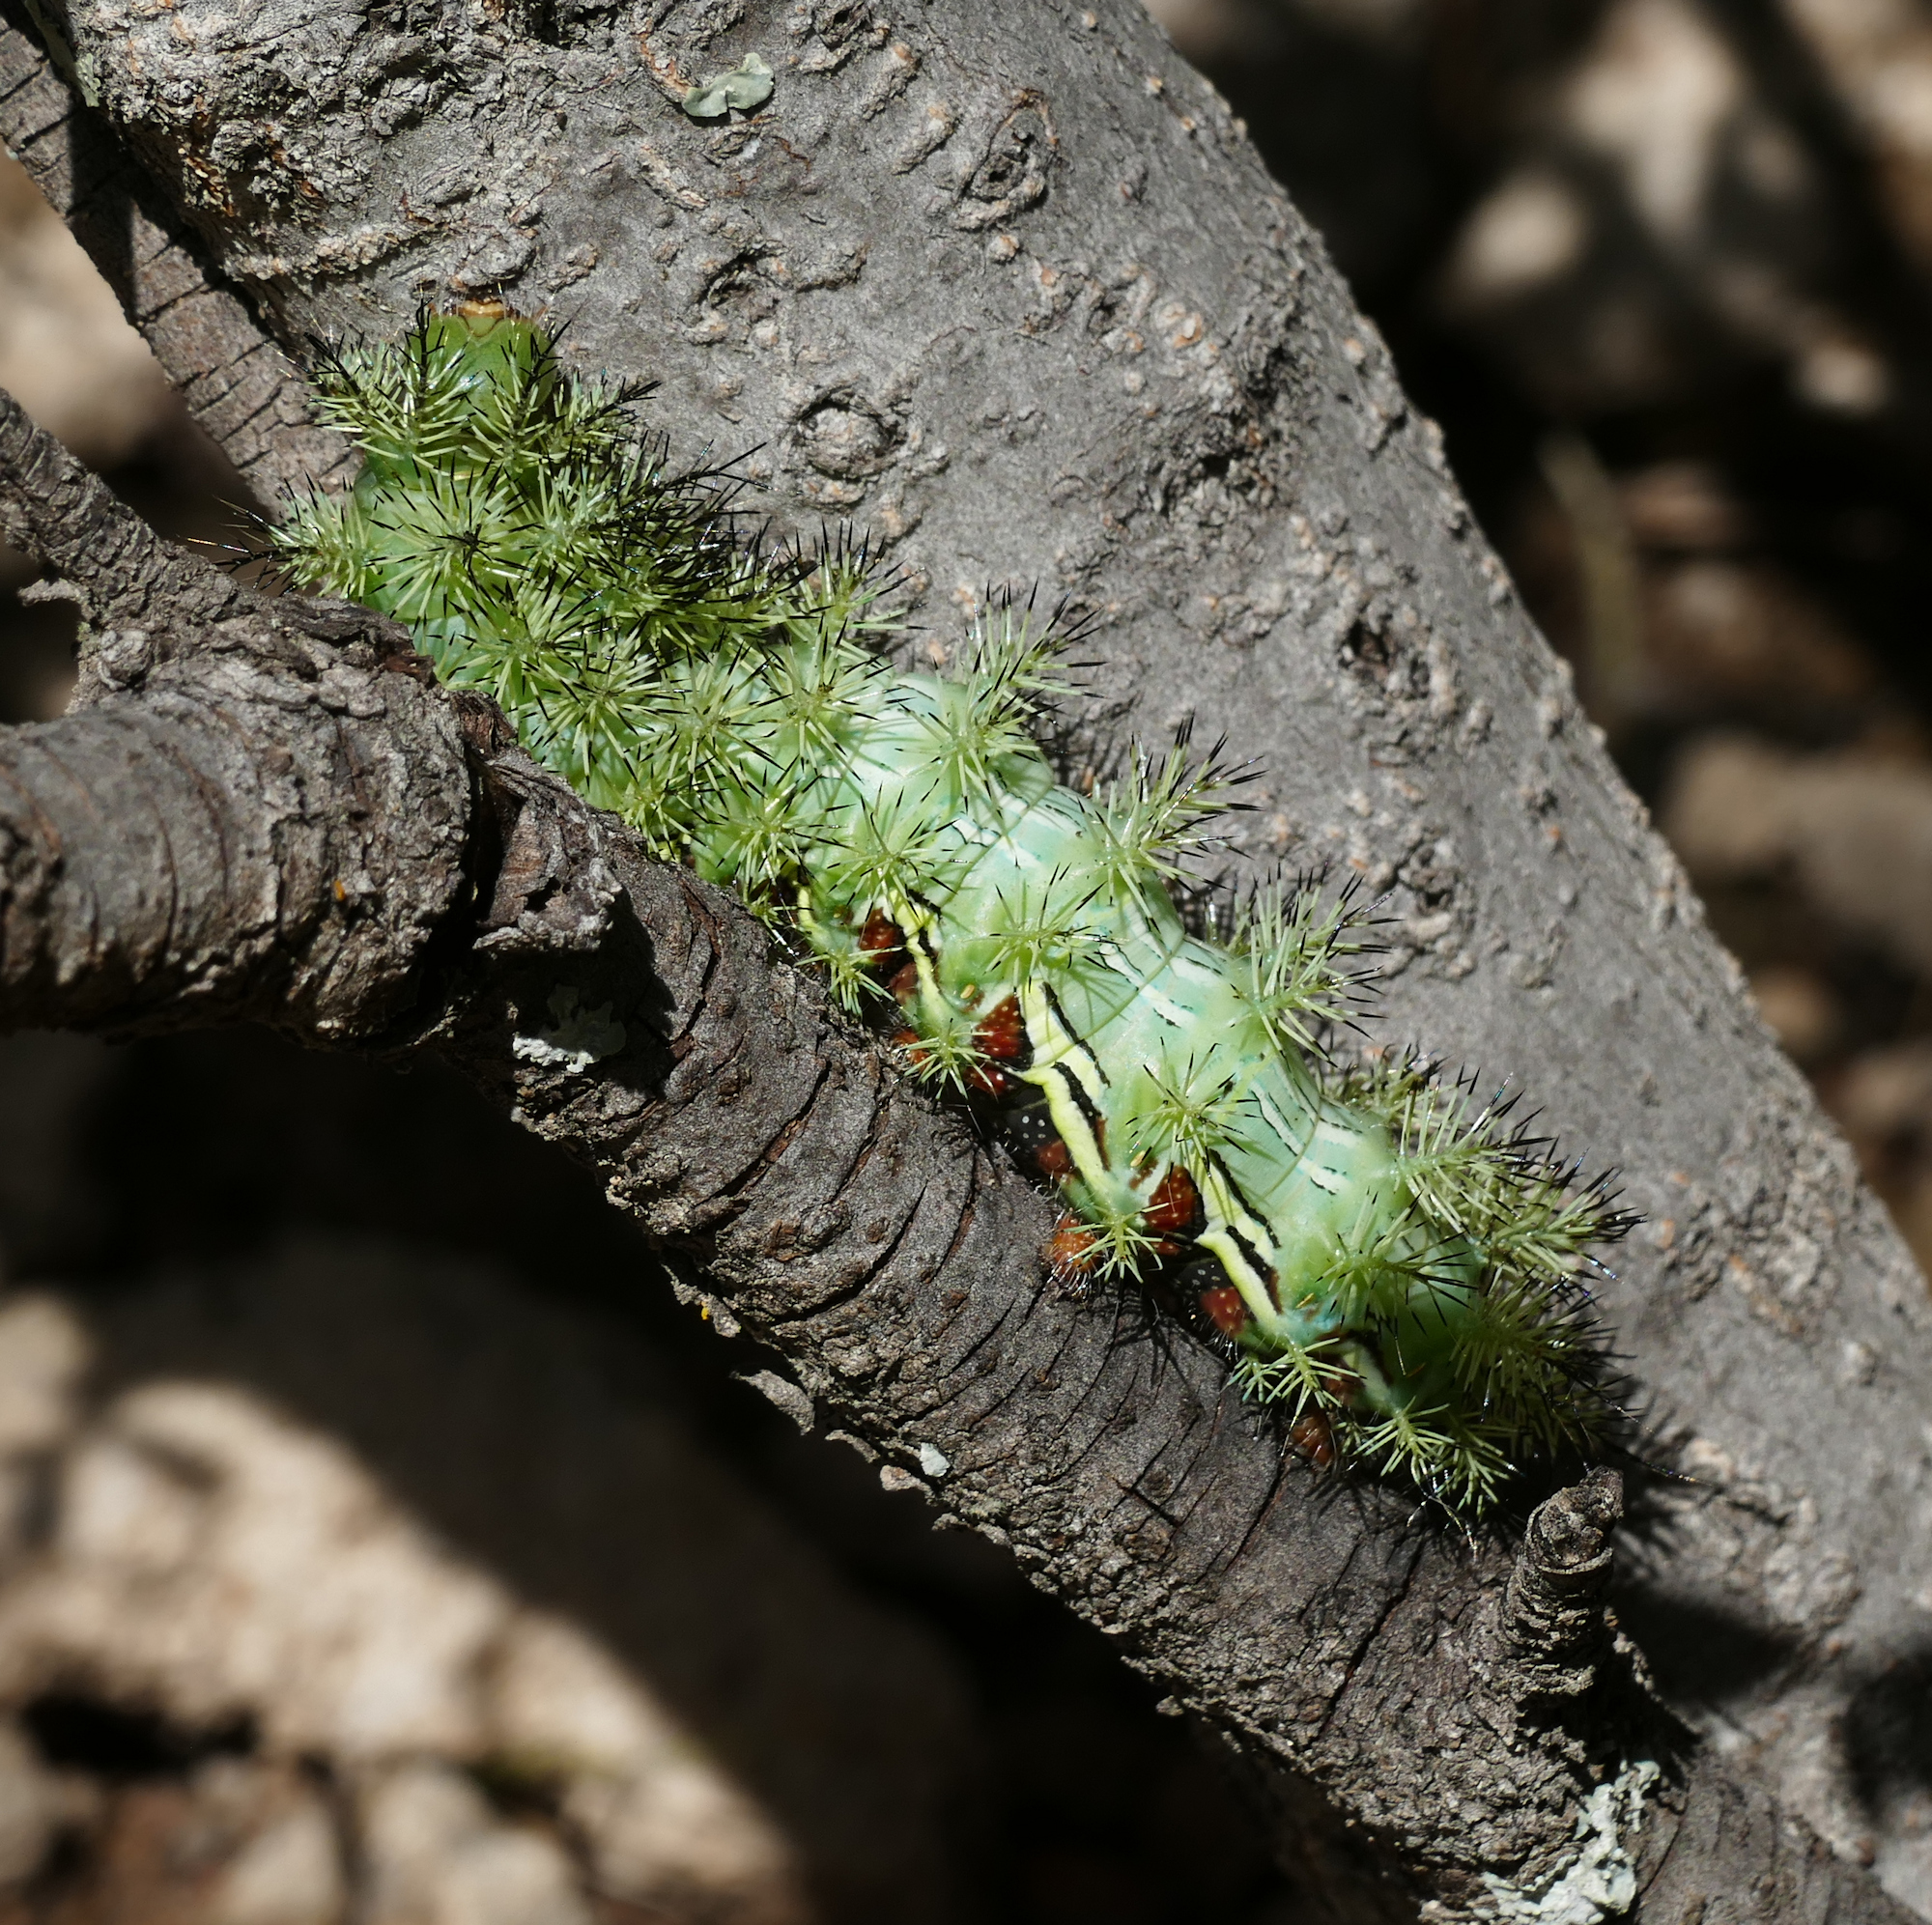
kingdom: Animalia
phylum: Arthropoda
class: Insecta
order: Lepidoptera
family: Saturniidae
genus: Automeris
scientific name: Automeris cecrops
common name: Cecrops eyed silkmoth
